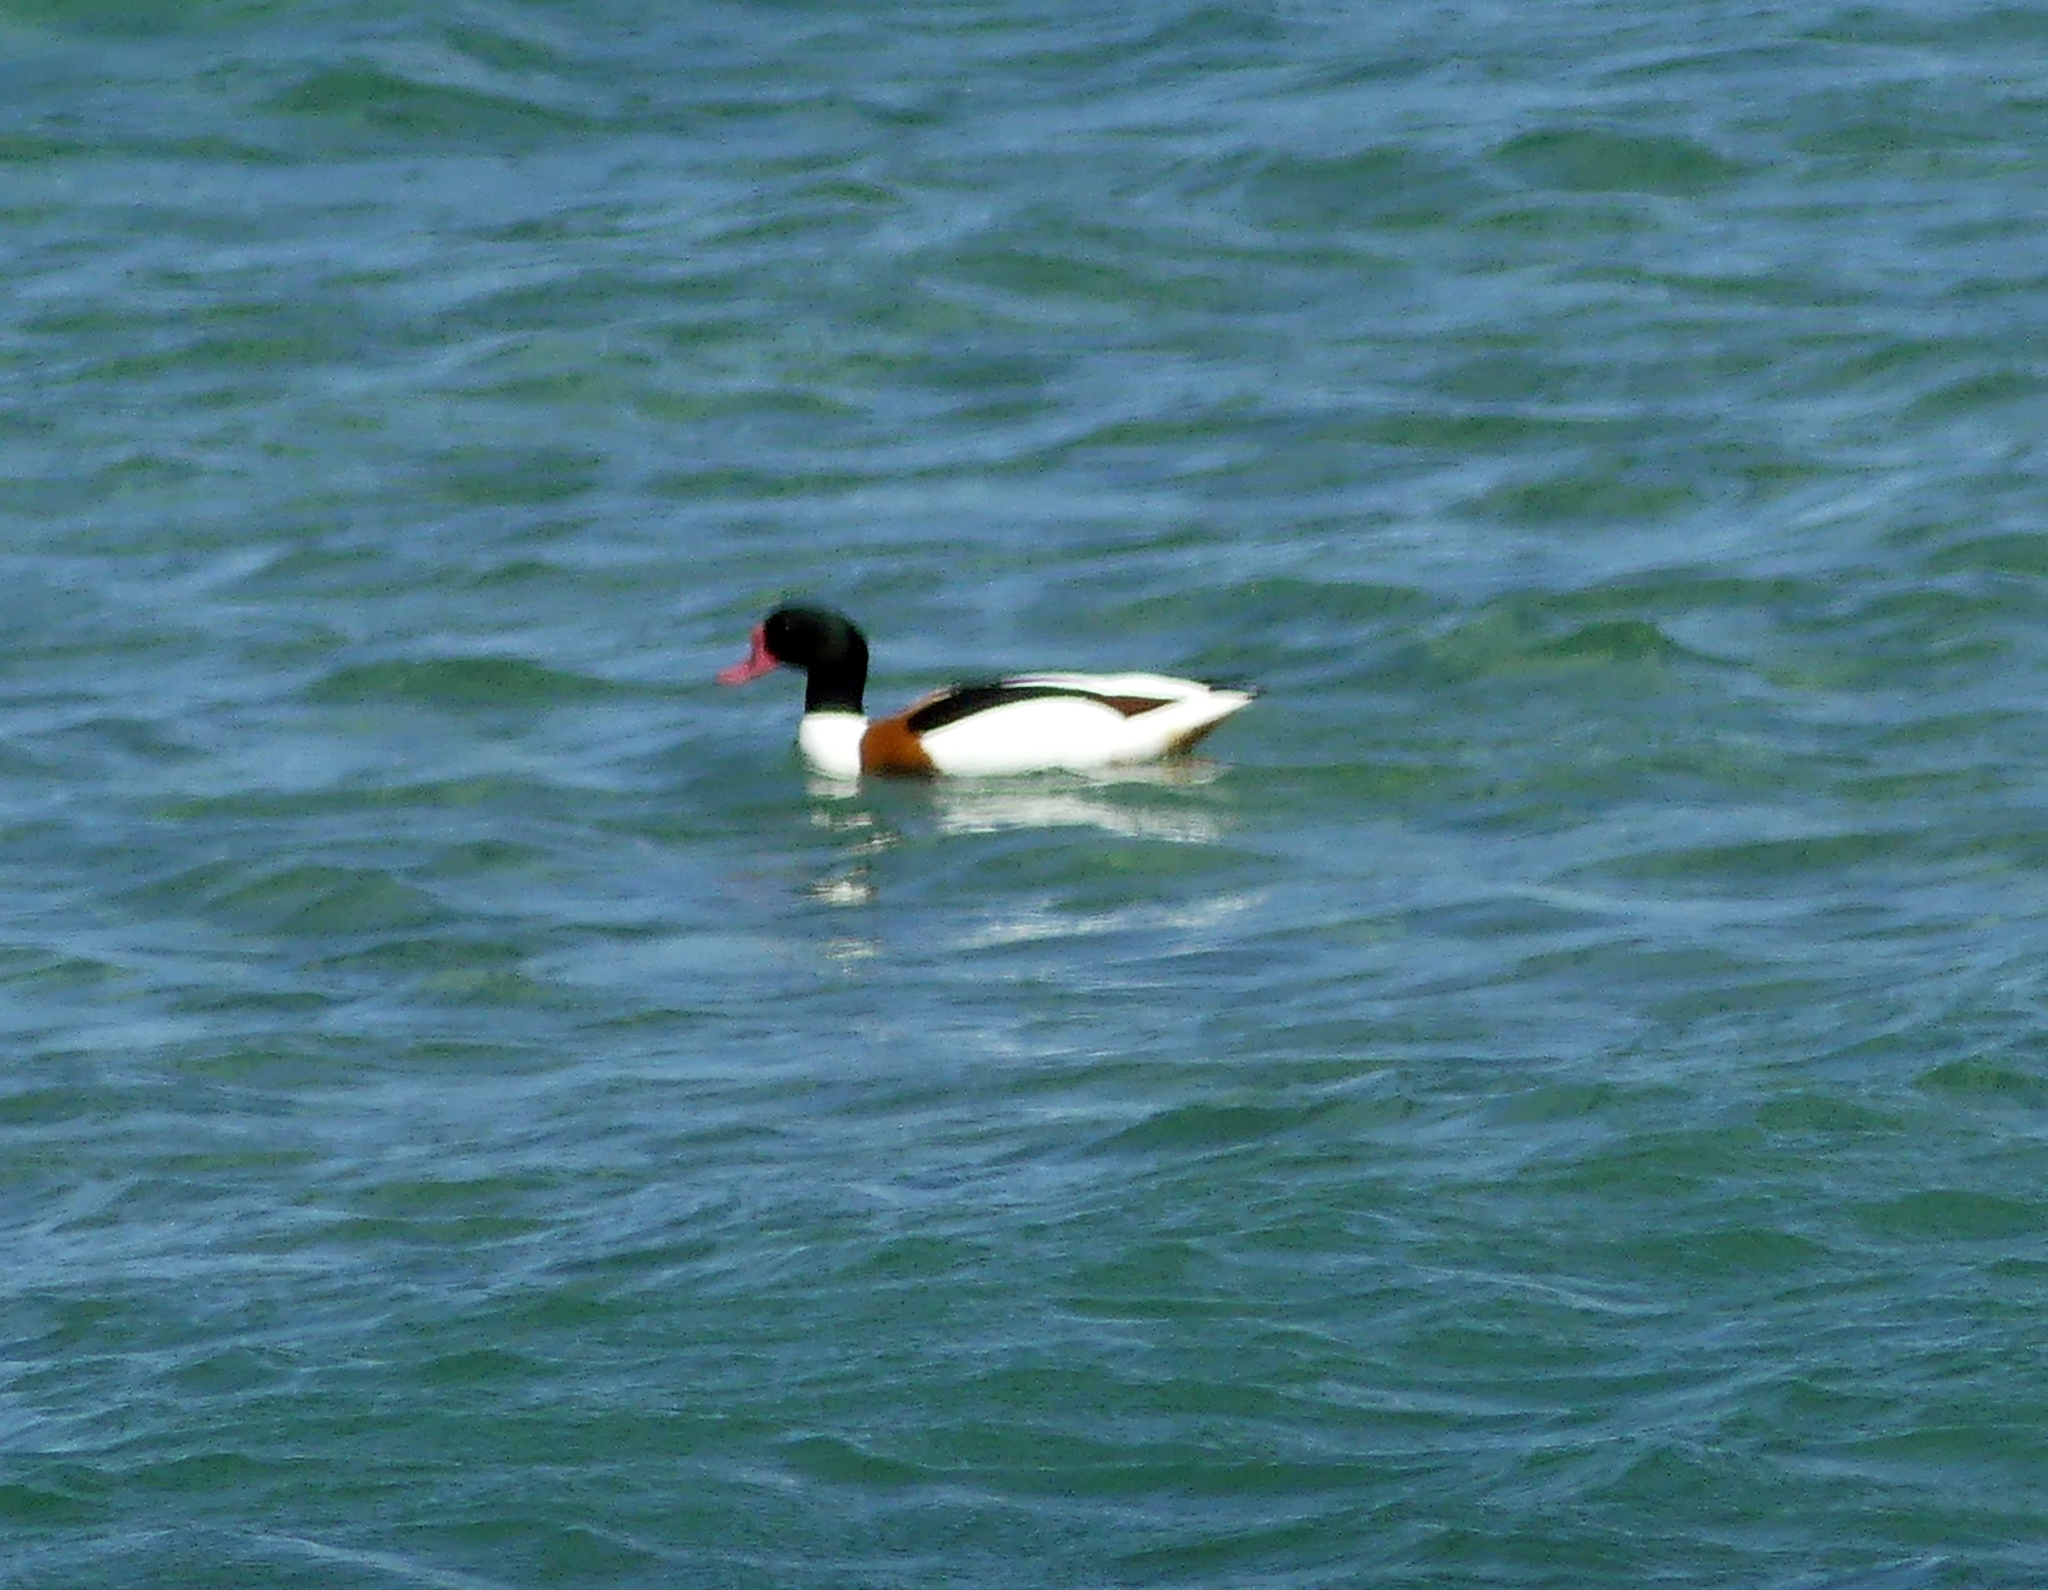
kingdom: Animalia
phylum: Chordata
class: Aves
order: Anseriformes
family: Anatidae
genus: Tadorna
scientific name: Tadorna tadorna
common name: Common shelduck
